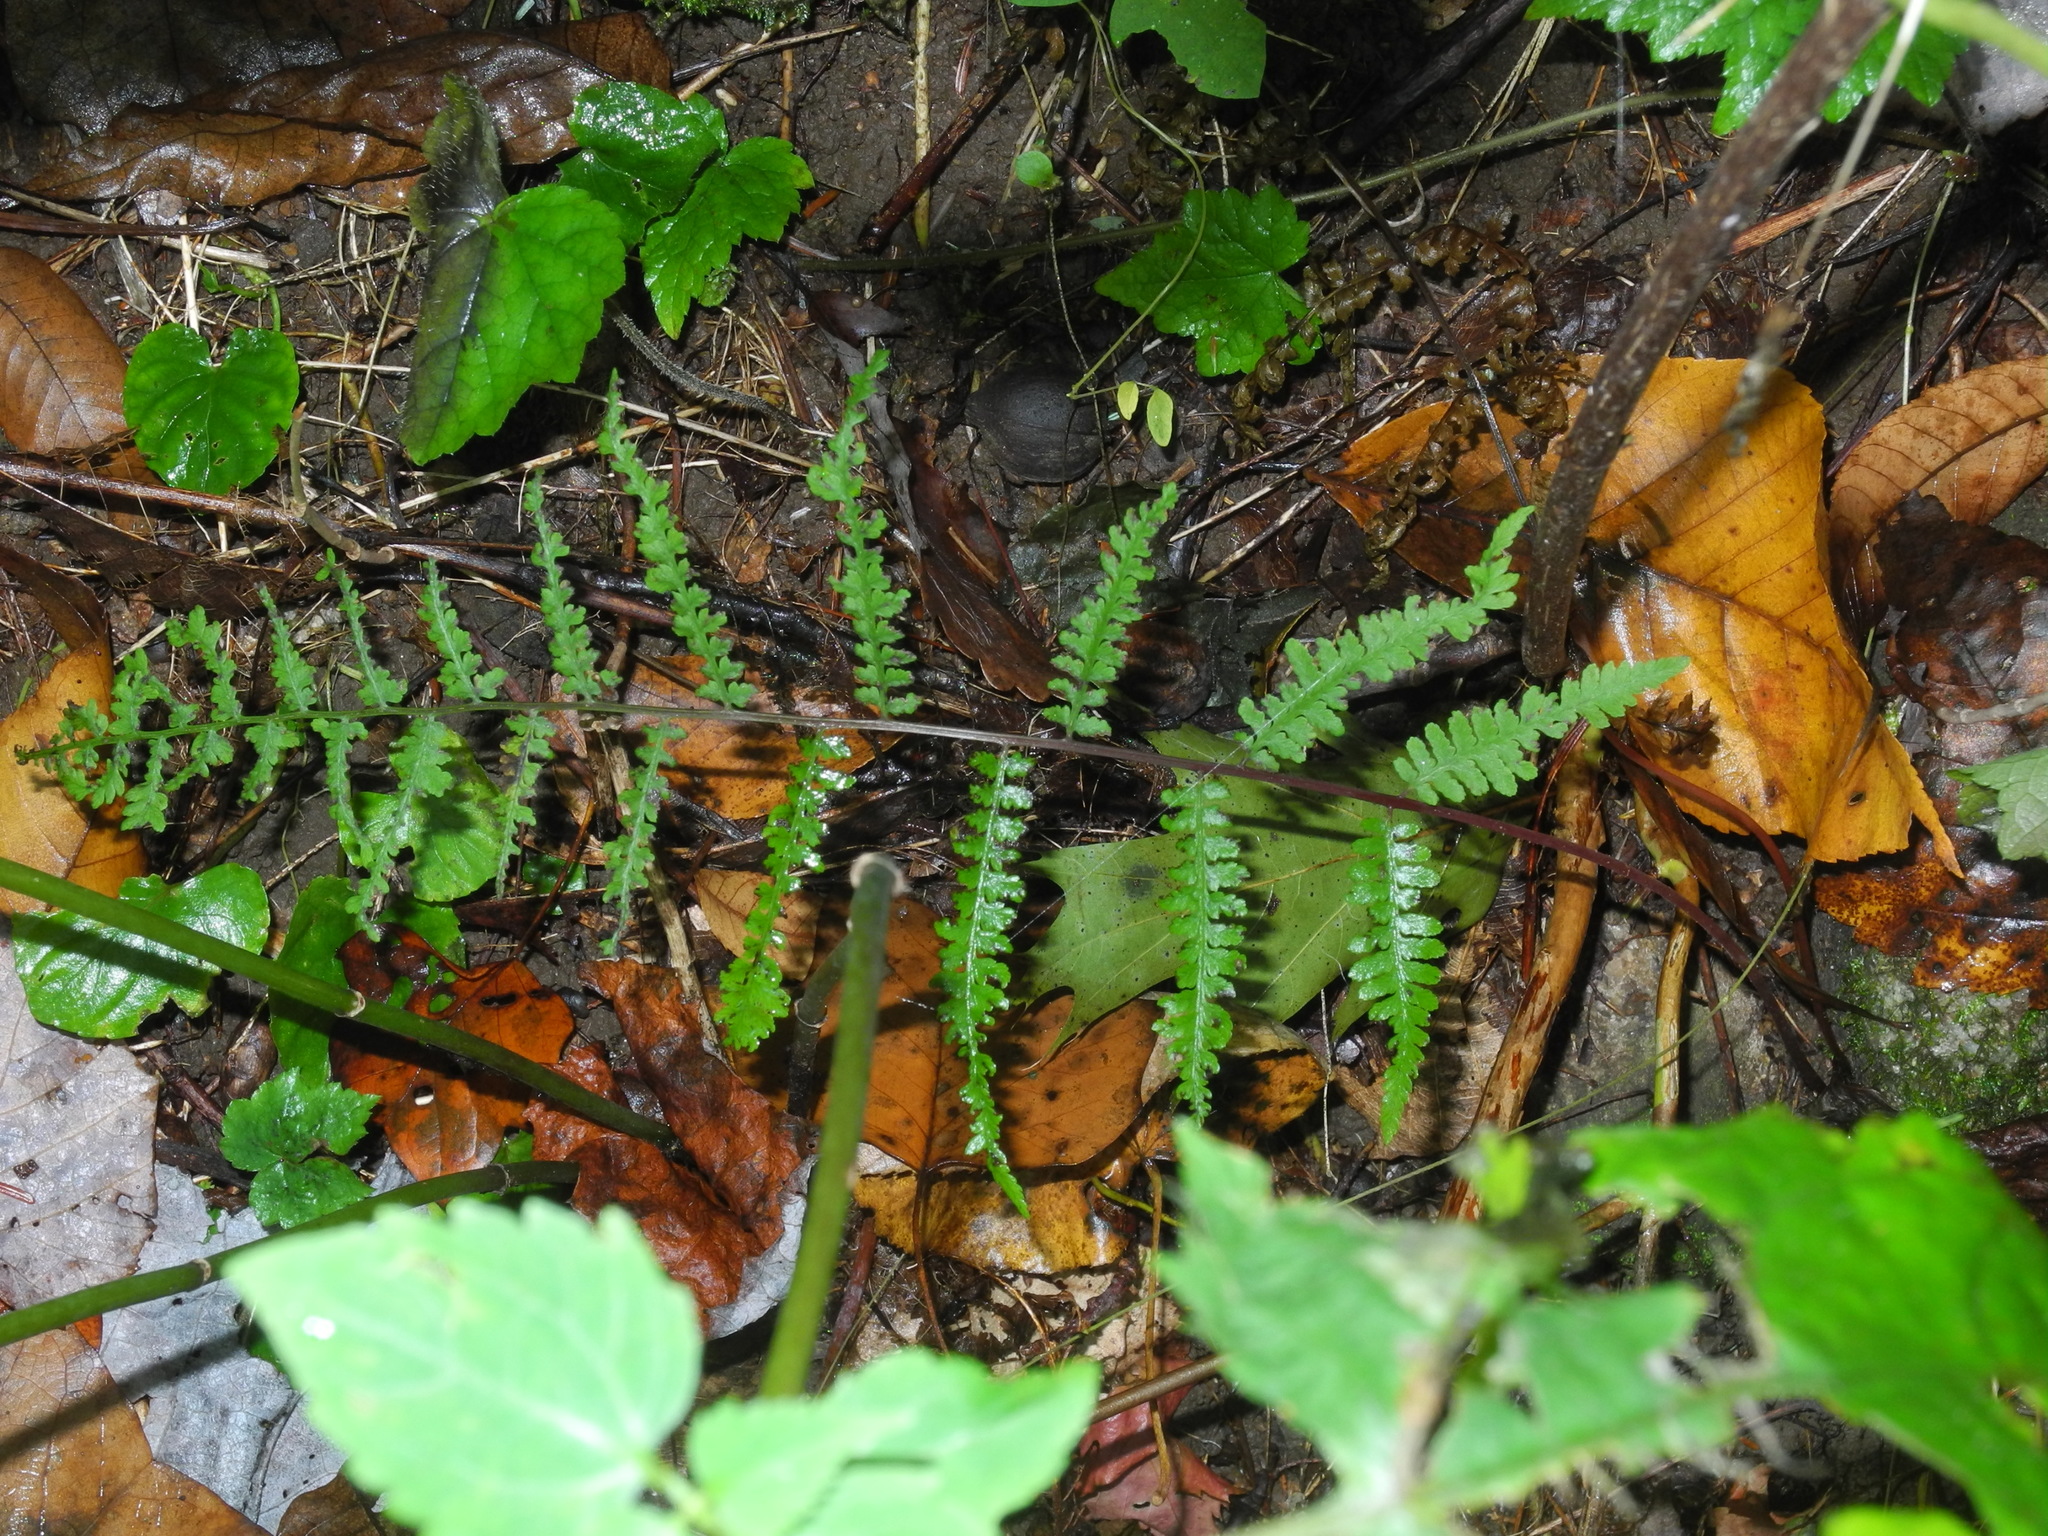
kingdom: Plantae
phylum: Tracheophyta
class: Polypodiopsida
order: Polypodiales
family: Athyriaceae
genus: Athyrium
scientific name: Athyrium asplenioides
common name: Southern lady fern
